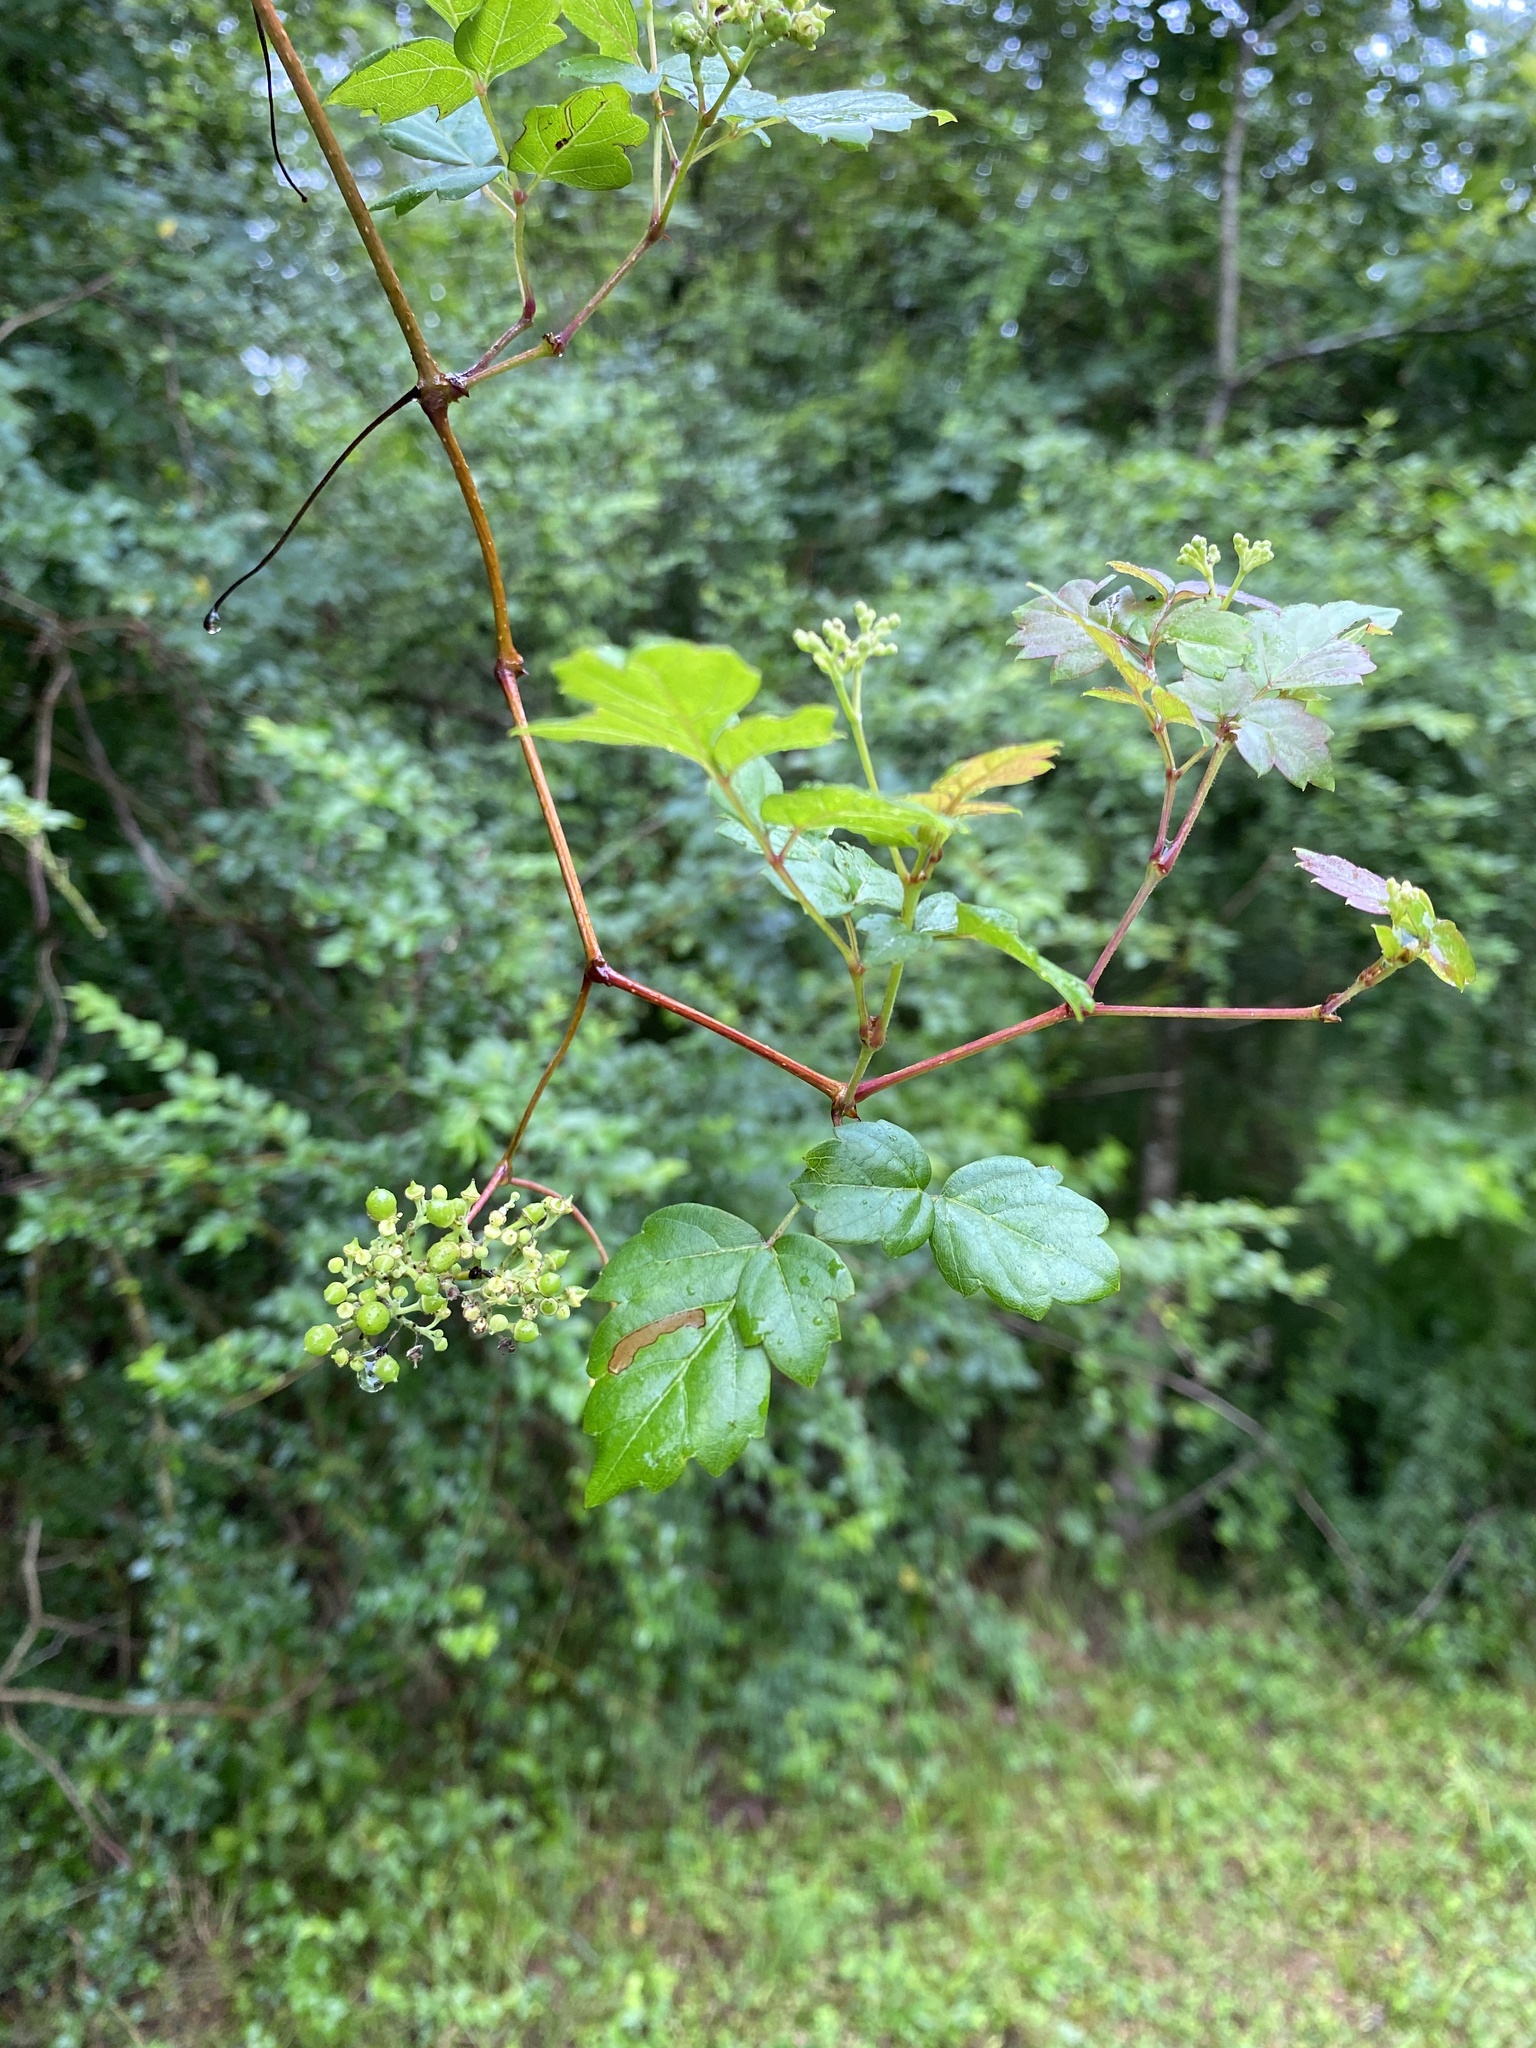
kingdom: Plantae
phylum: Tracheophyta
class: Magnoliopsida
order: Vitales
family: Vitaceae
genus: Nekemias
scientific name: Nekemias arborea
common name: Peppervine
